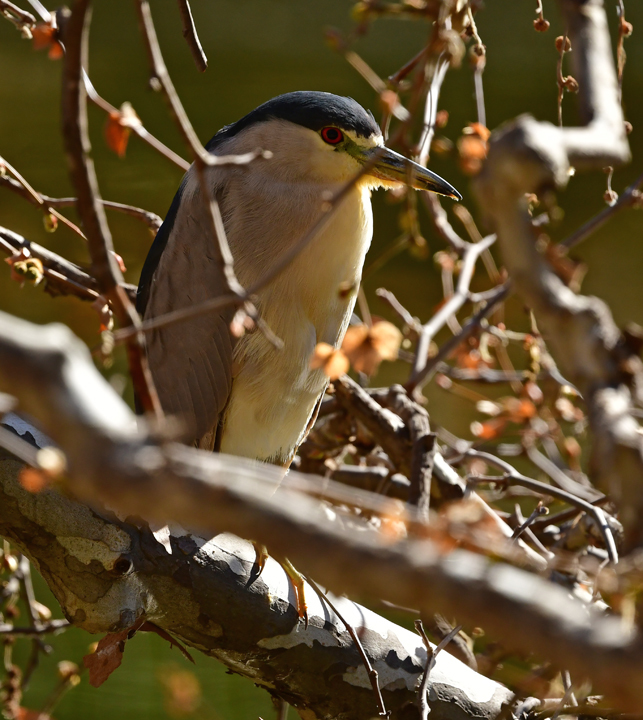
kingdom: Animalia
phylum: Chordata
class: Aves
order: Pelecaniformes
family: Ardeidae
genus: Nycticorax
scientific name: Nycticorax nycticorax
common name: Black-crowned night heron
